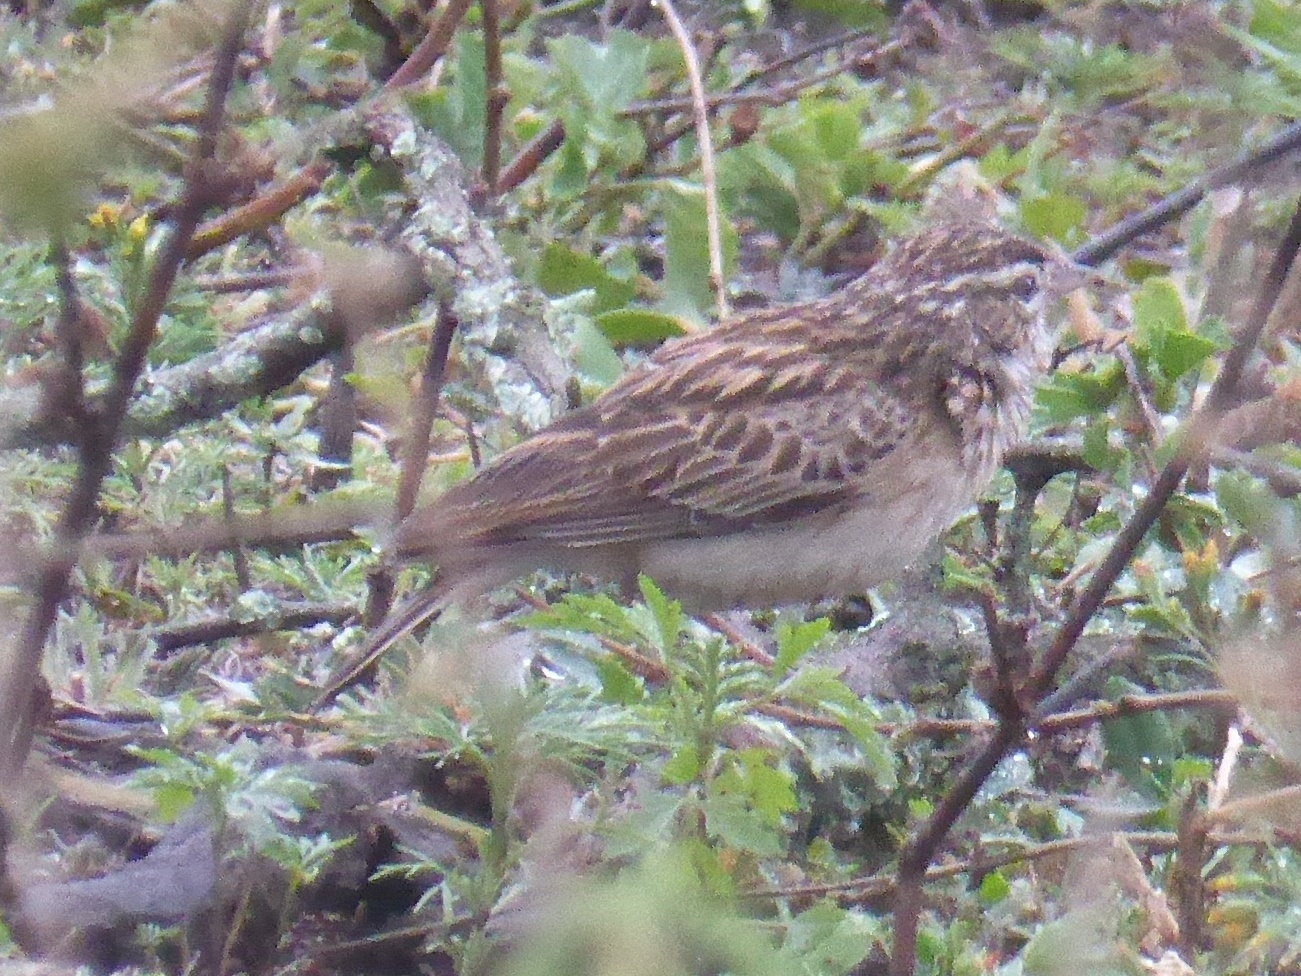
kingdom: Animalia
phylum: Chordata
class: Aves
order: Passeriformes
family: Alaudidae
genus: Calendulauda
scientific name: Calendulauda sabota
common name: Sabota lark
